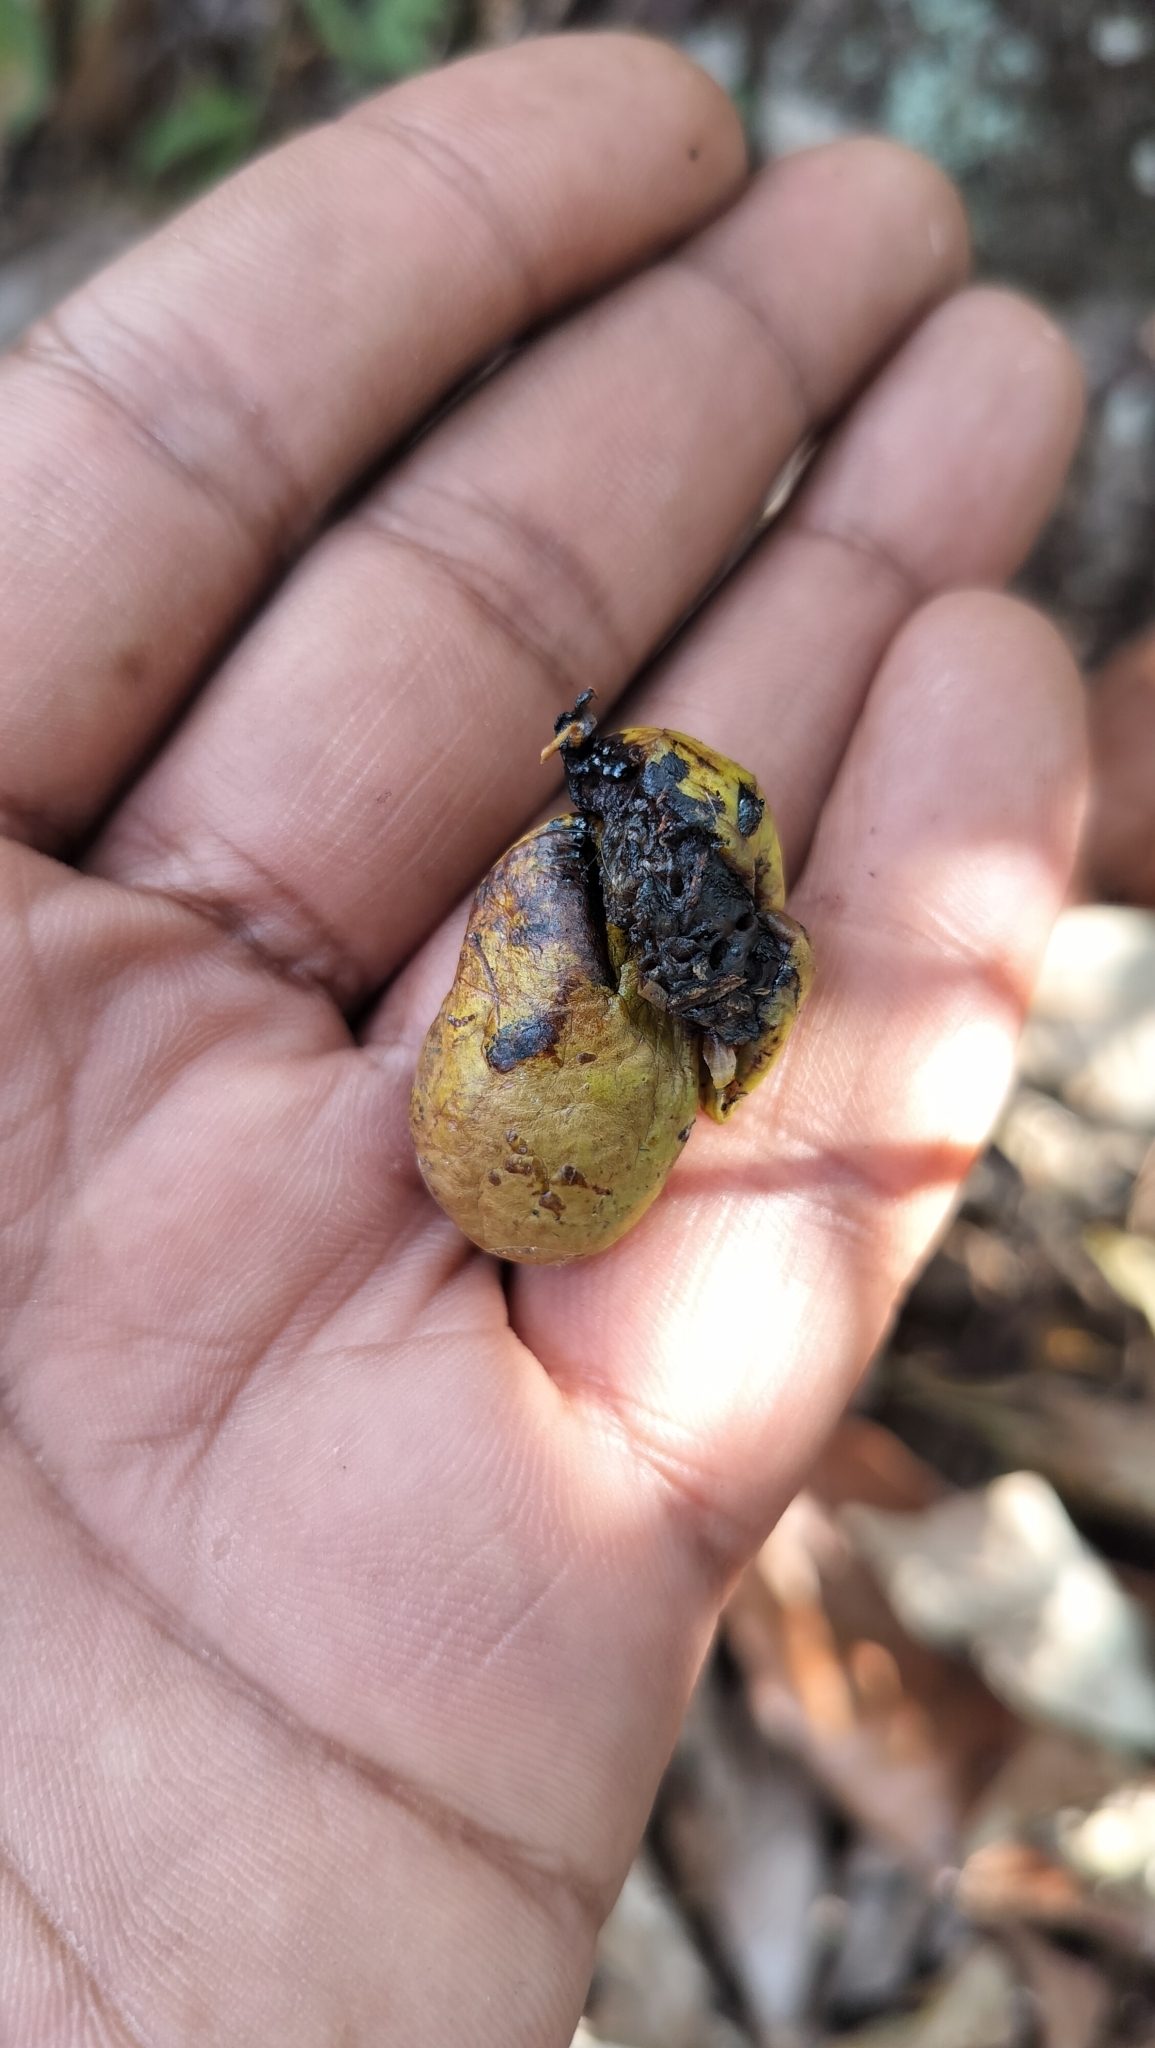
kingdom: Plantae
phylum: Tracheophyta
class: Magnoliopsida
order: Sapindales
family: Anacardiaceae
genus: Semecarpus
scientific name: Semecarpus travancoricus
